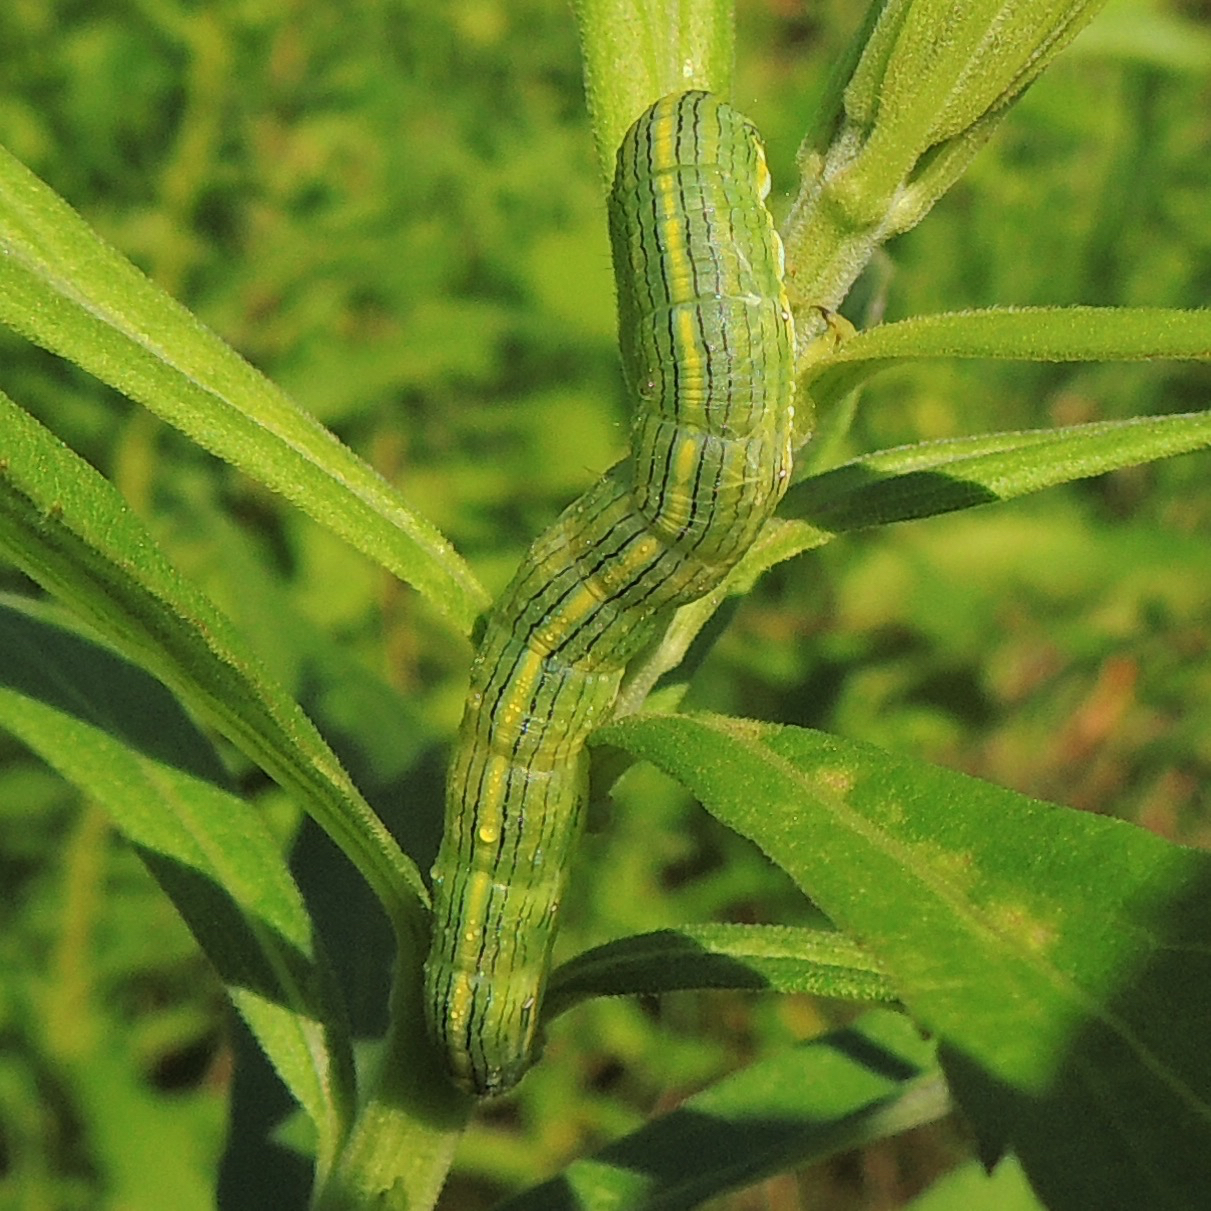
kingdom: Animalia
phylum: Arthropoda
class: Insecta
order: Lepidoptera
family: Noctuidae
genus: Cucullia
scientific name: Cucullia asteroides
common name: Asteroid moth
